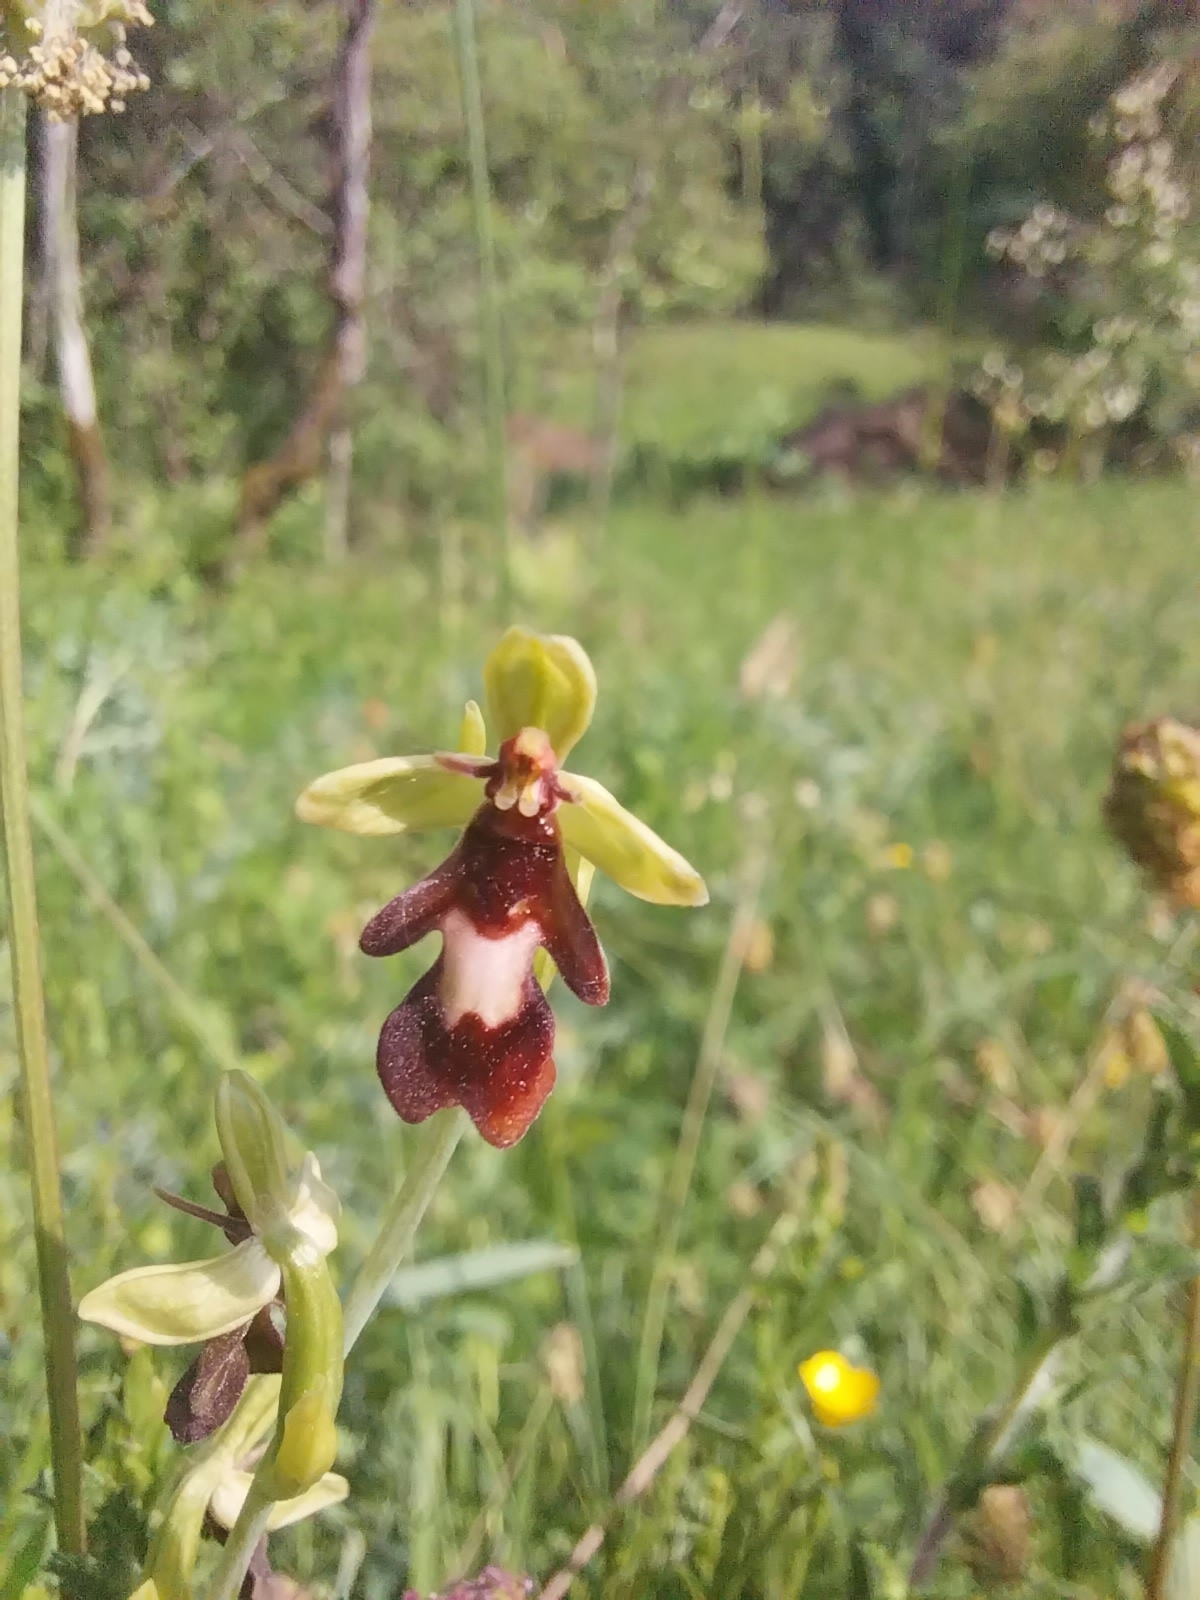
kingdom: Plantae
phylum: Tracheophyta
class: Liliopsida
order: Asparagales
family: Orchidaceae
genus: Ophrys
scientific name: Ophrys insectifera
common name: Fly orchid
